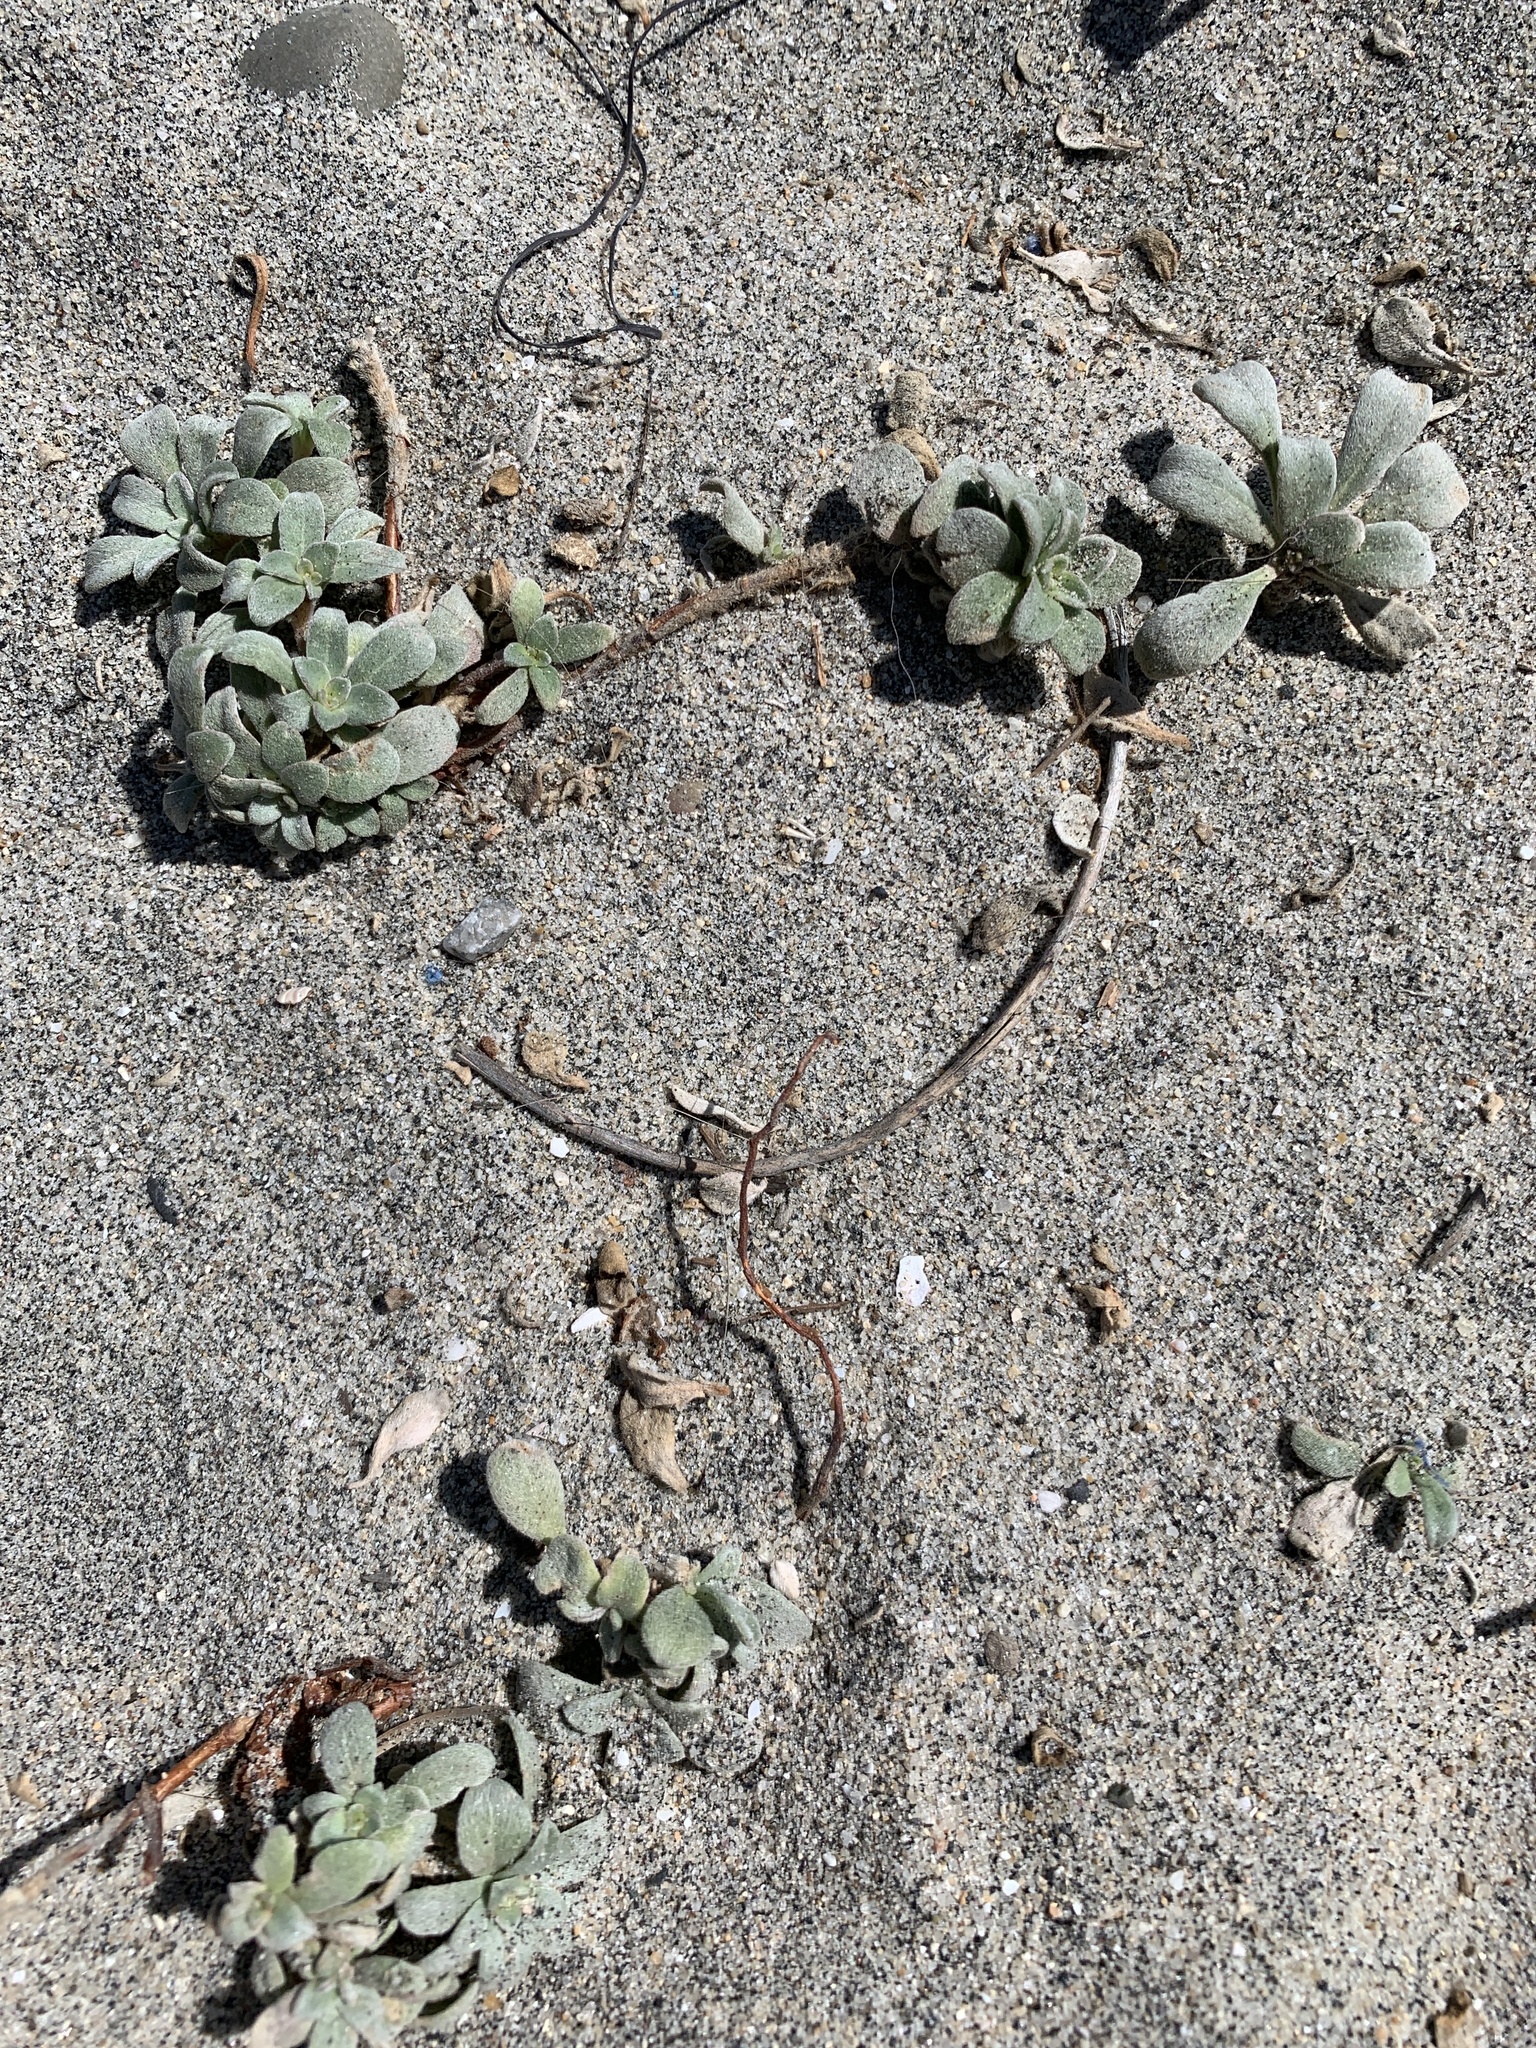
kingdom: Plantae
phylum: Tracheophyta
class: Magnoliopsida
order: Myrtales
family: Onagraceae
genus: Camissoniopsis
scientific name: Camissoniopsis cheiranthifolia
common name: Beach suncup
